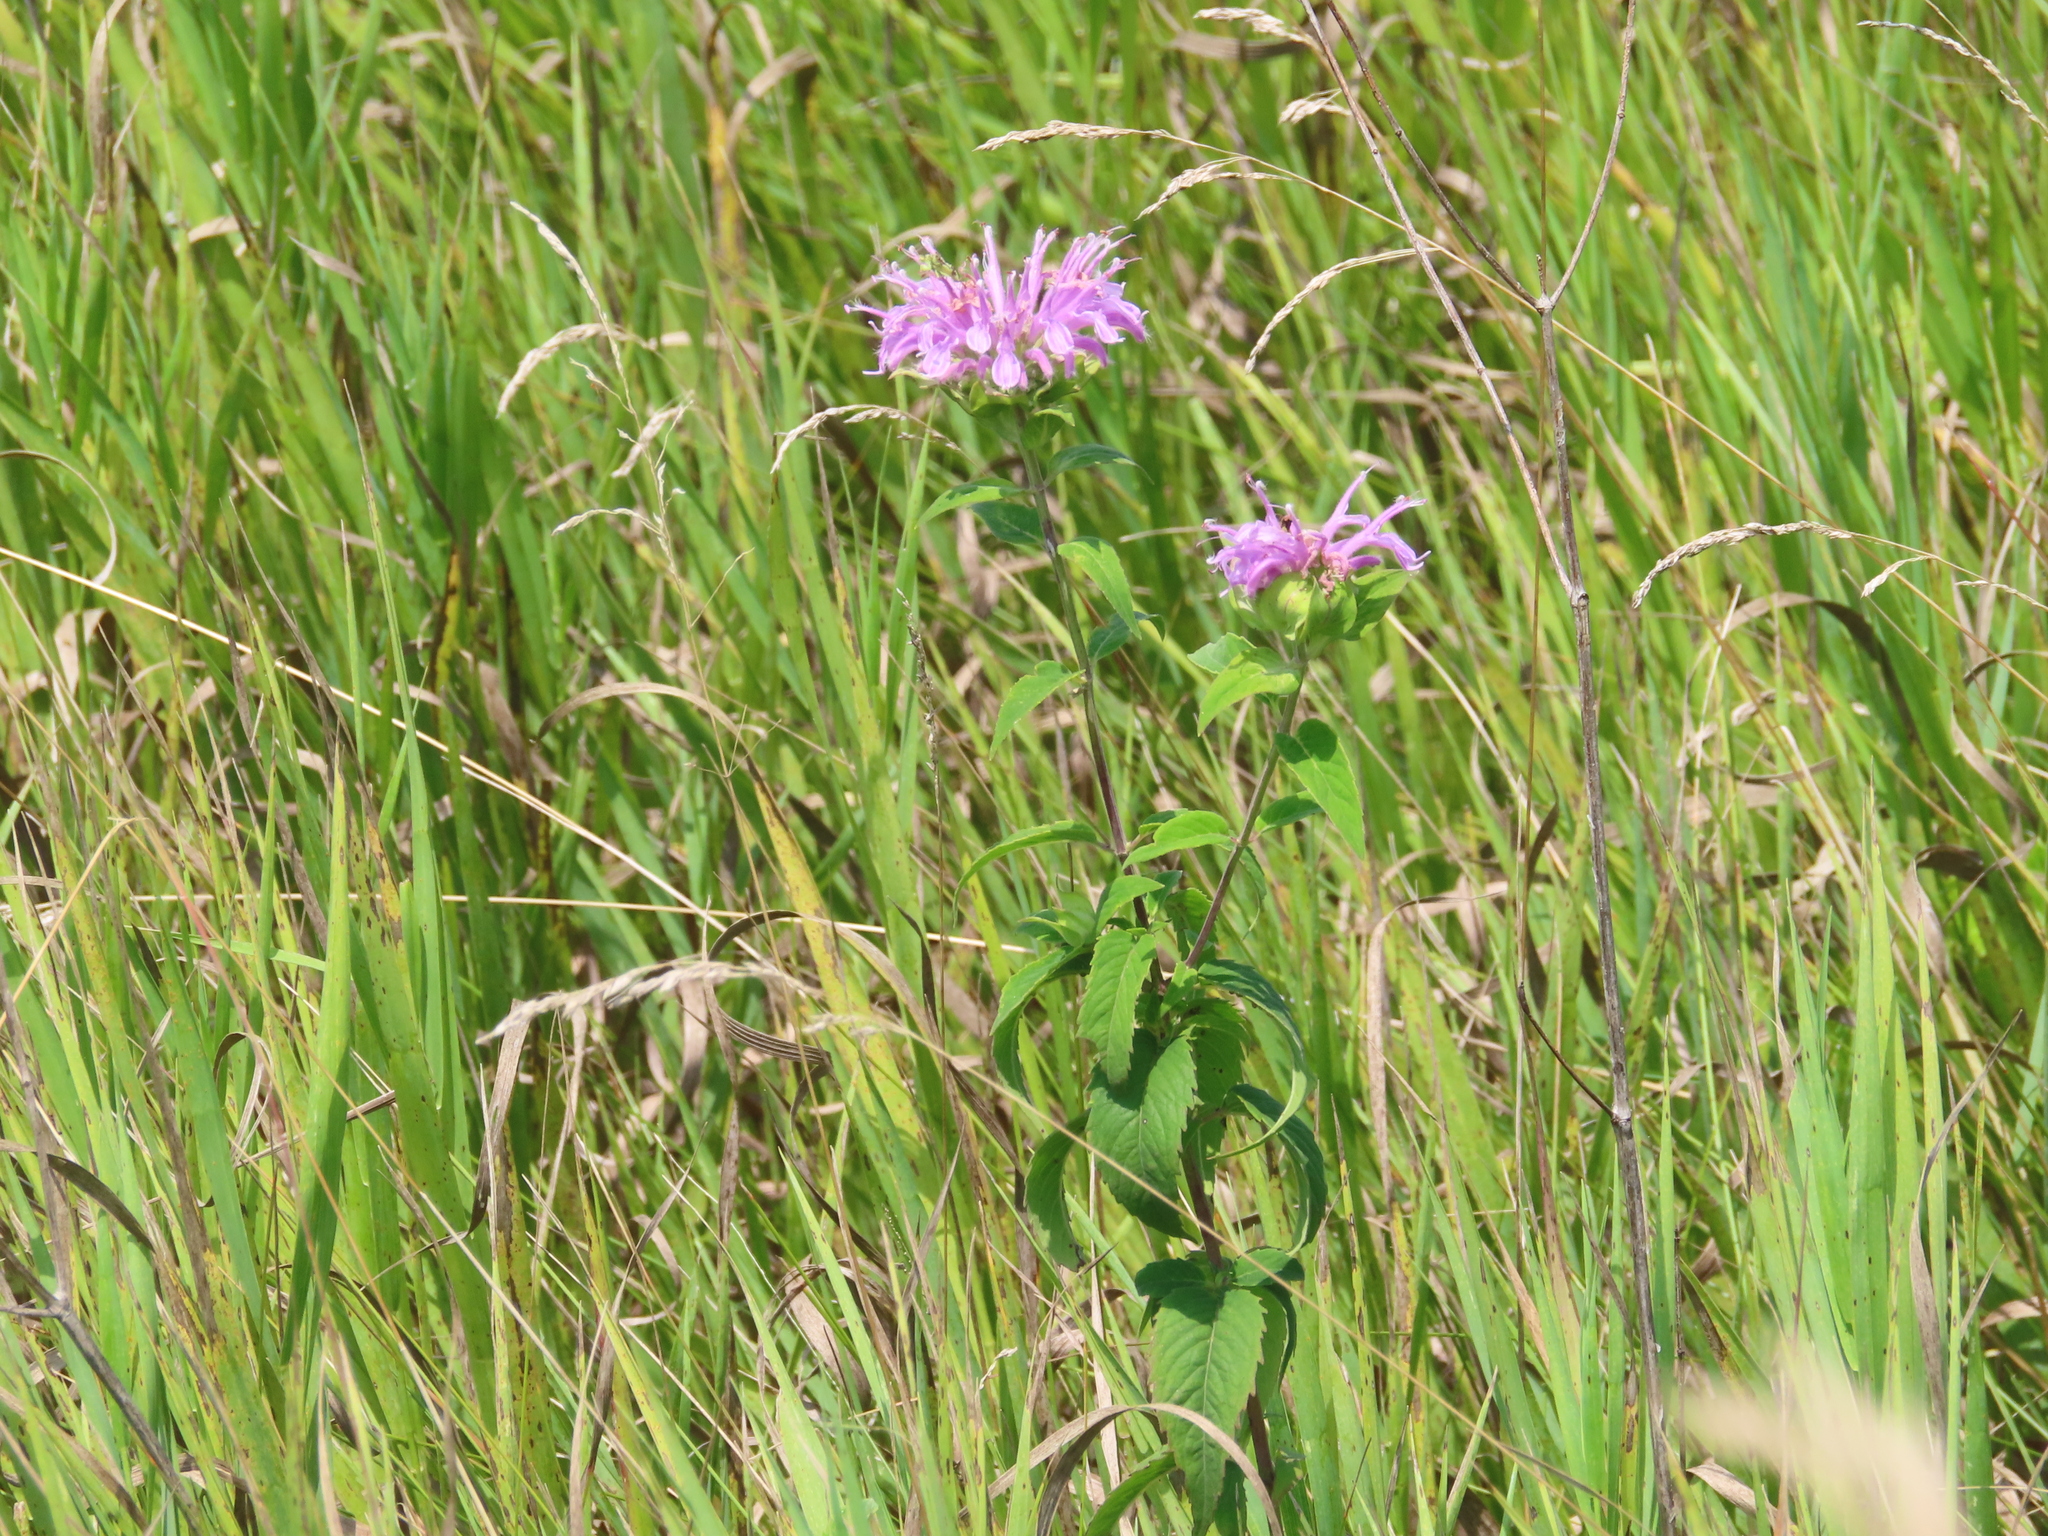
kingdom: Plantae
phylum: Tracheophyta
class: Magnoliopsida
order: Lamiales
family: Lamiaceae
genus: Monarda
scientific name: Monarda fistulosa
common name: Purple beebalm
